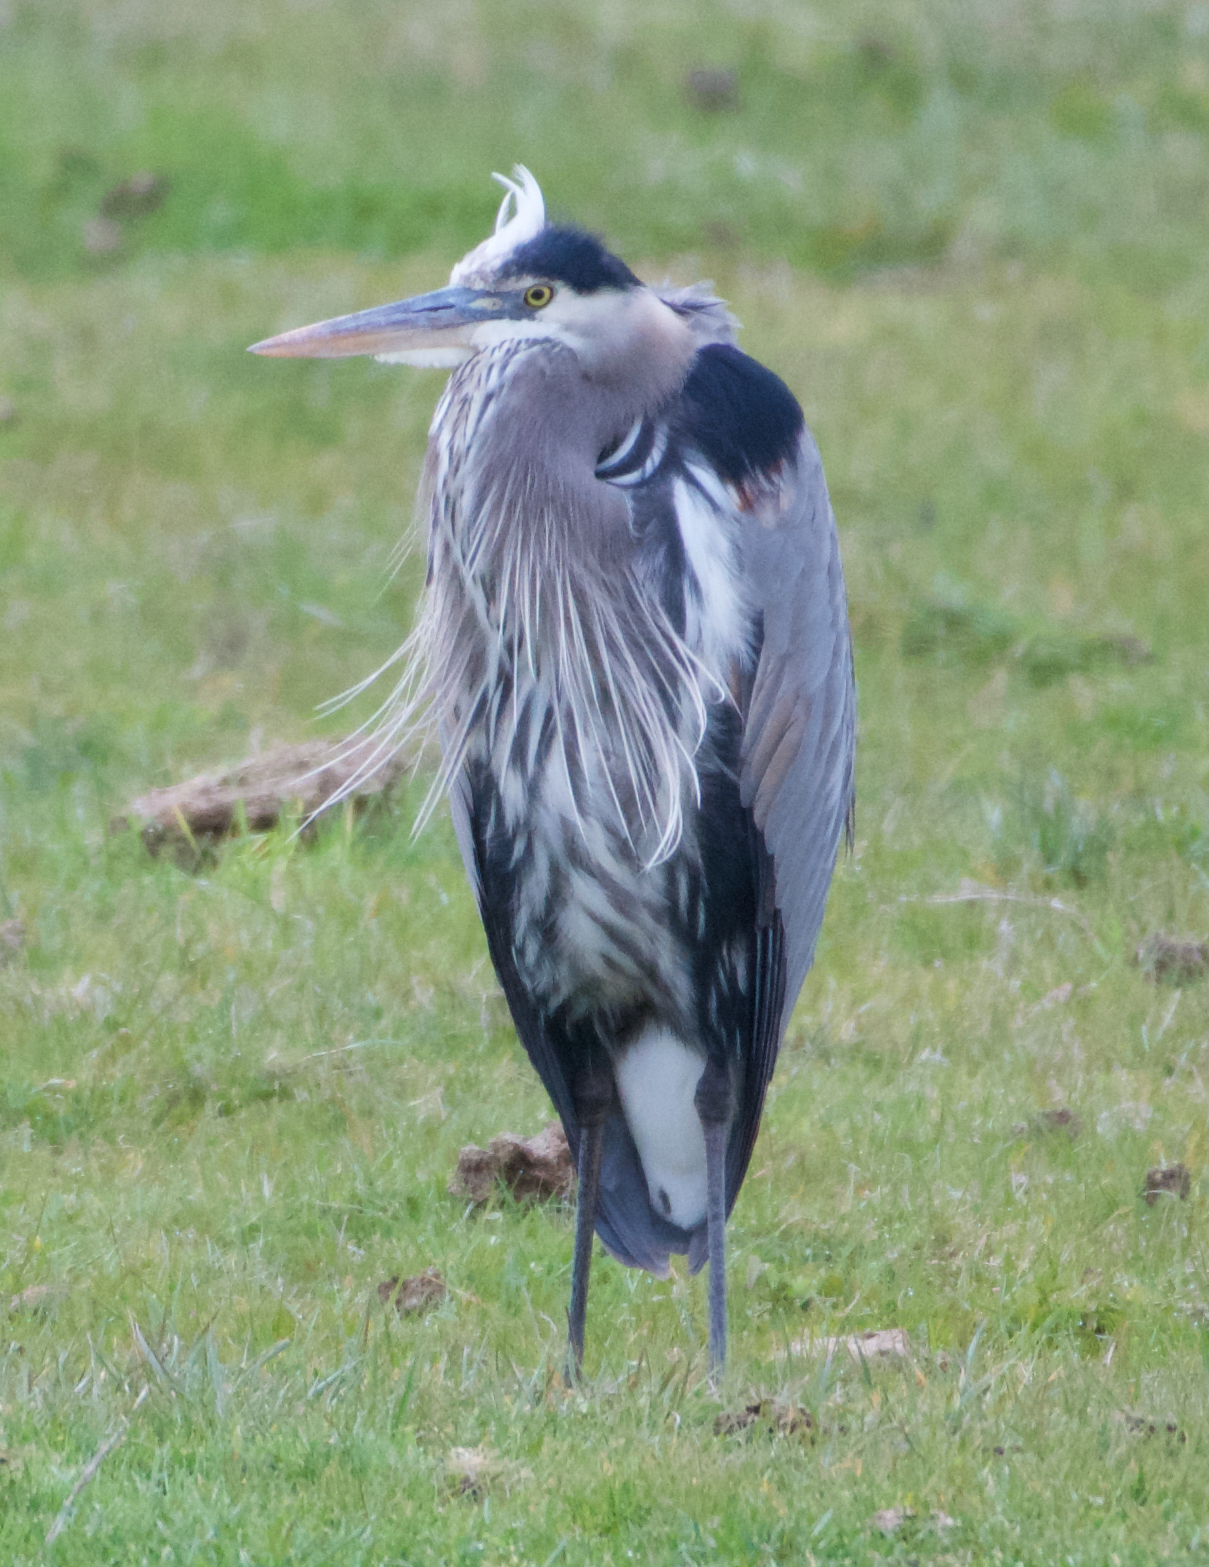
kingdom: Animalia
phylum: Chordata
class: Aves
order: Pelecaniformes
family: Ardeidae
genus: Ardea
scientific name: Ardea herodias
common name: Great blue heron
